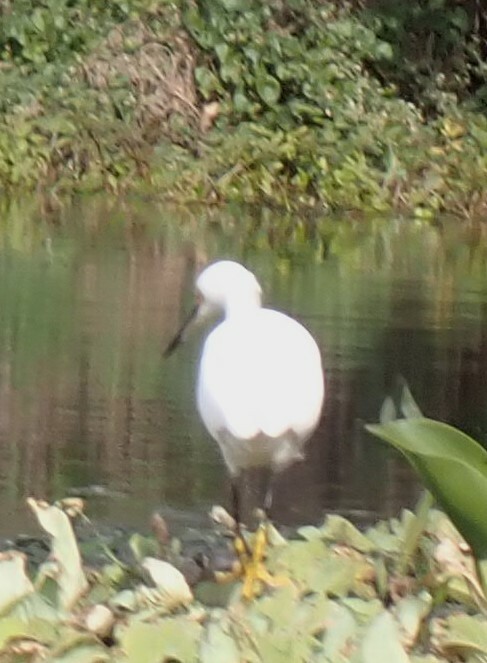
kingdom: Animalia
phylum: Chordata
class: Aves
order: Pelecaniformes
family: Ardeidae
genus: Egretta
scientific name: Egretta thula
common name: Snowy egret
